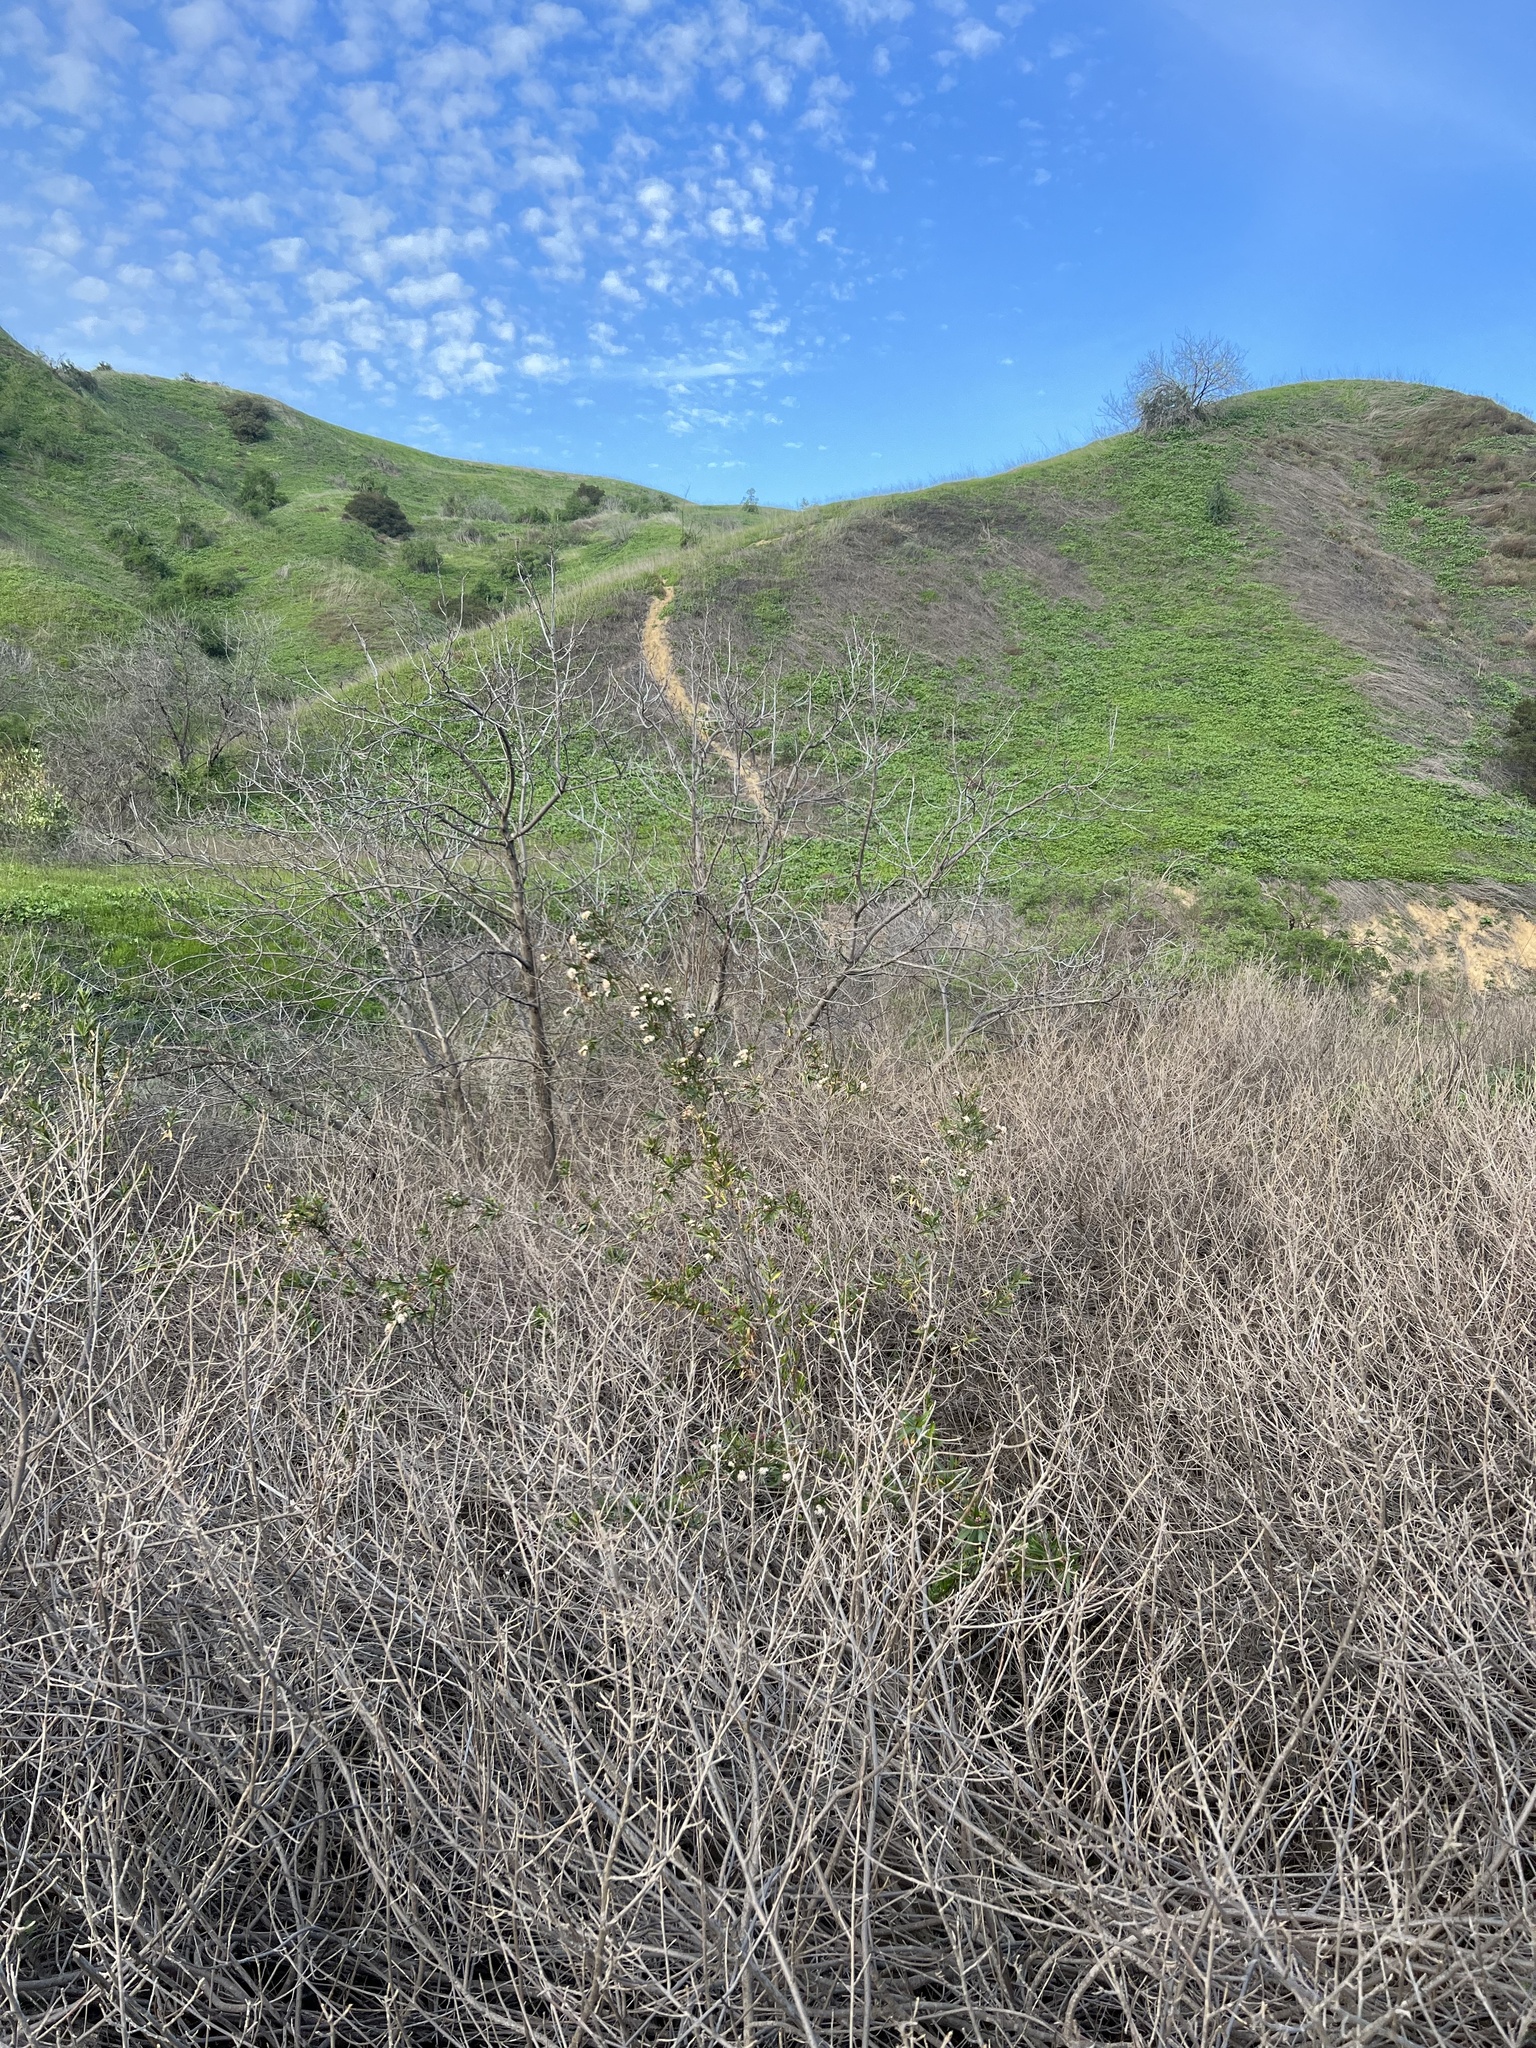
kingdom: Plantae
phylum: Tracheophyta
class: Magnoliopsida
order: Asterales
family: Asteraceae
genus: Baccharis
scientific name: Baccharis salicifolia
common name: Sticky baccharis
